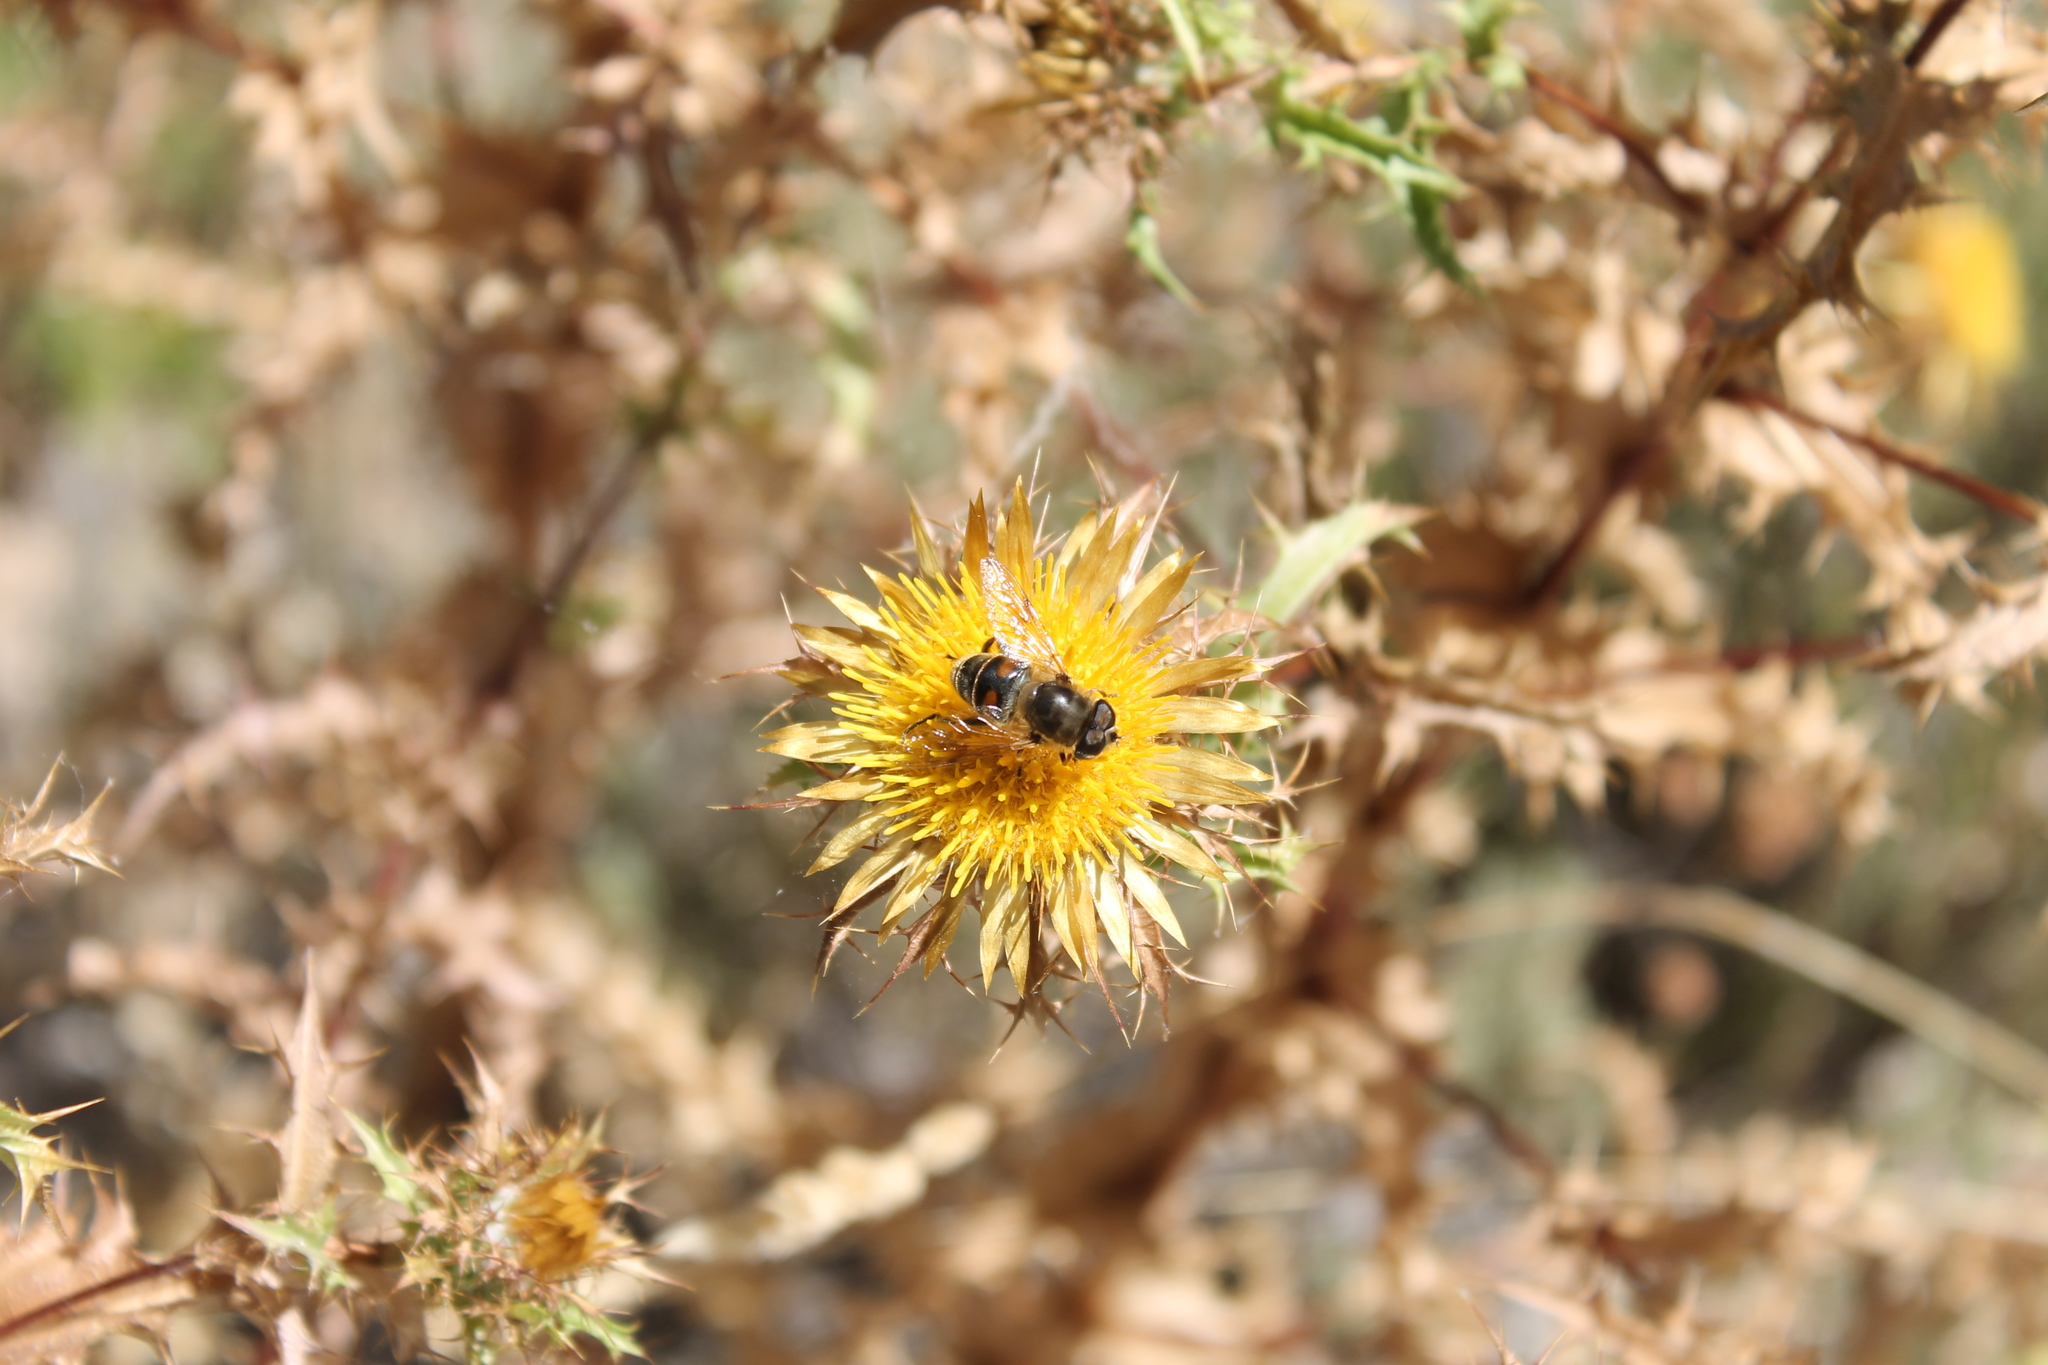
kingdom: Animalia
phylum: Arthropoda
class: Insecta
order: Diptera
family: Syrphidae
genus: Eristalis
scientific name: Eristalis tenax
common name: Drone fly
